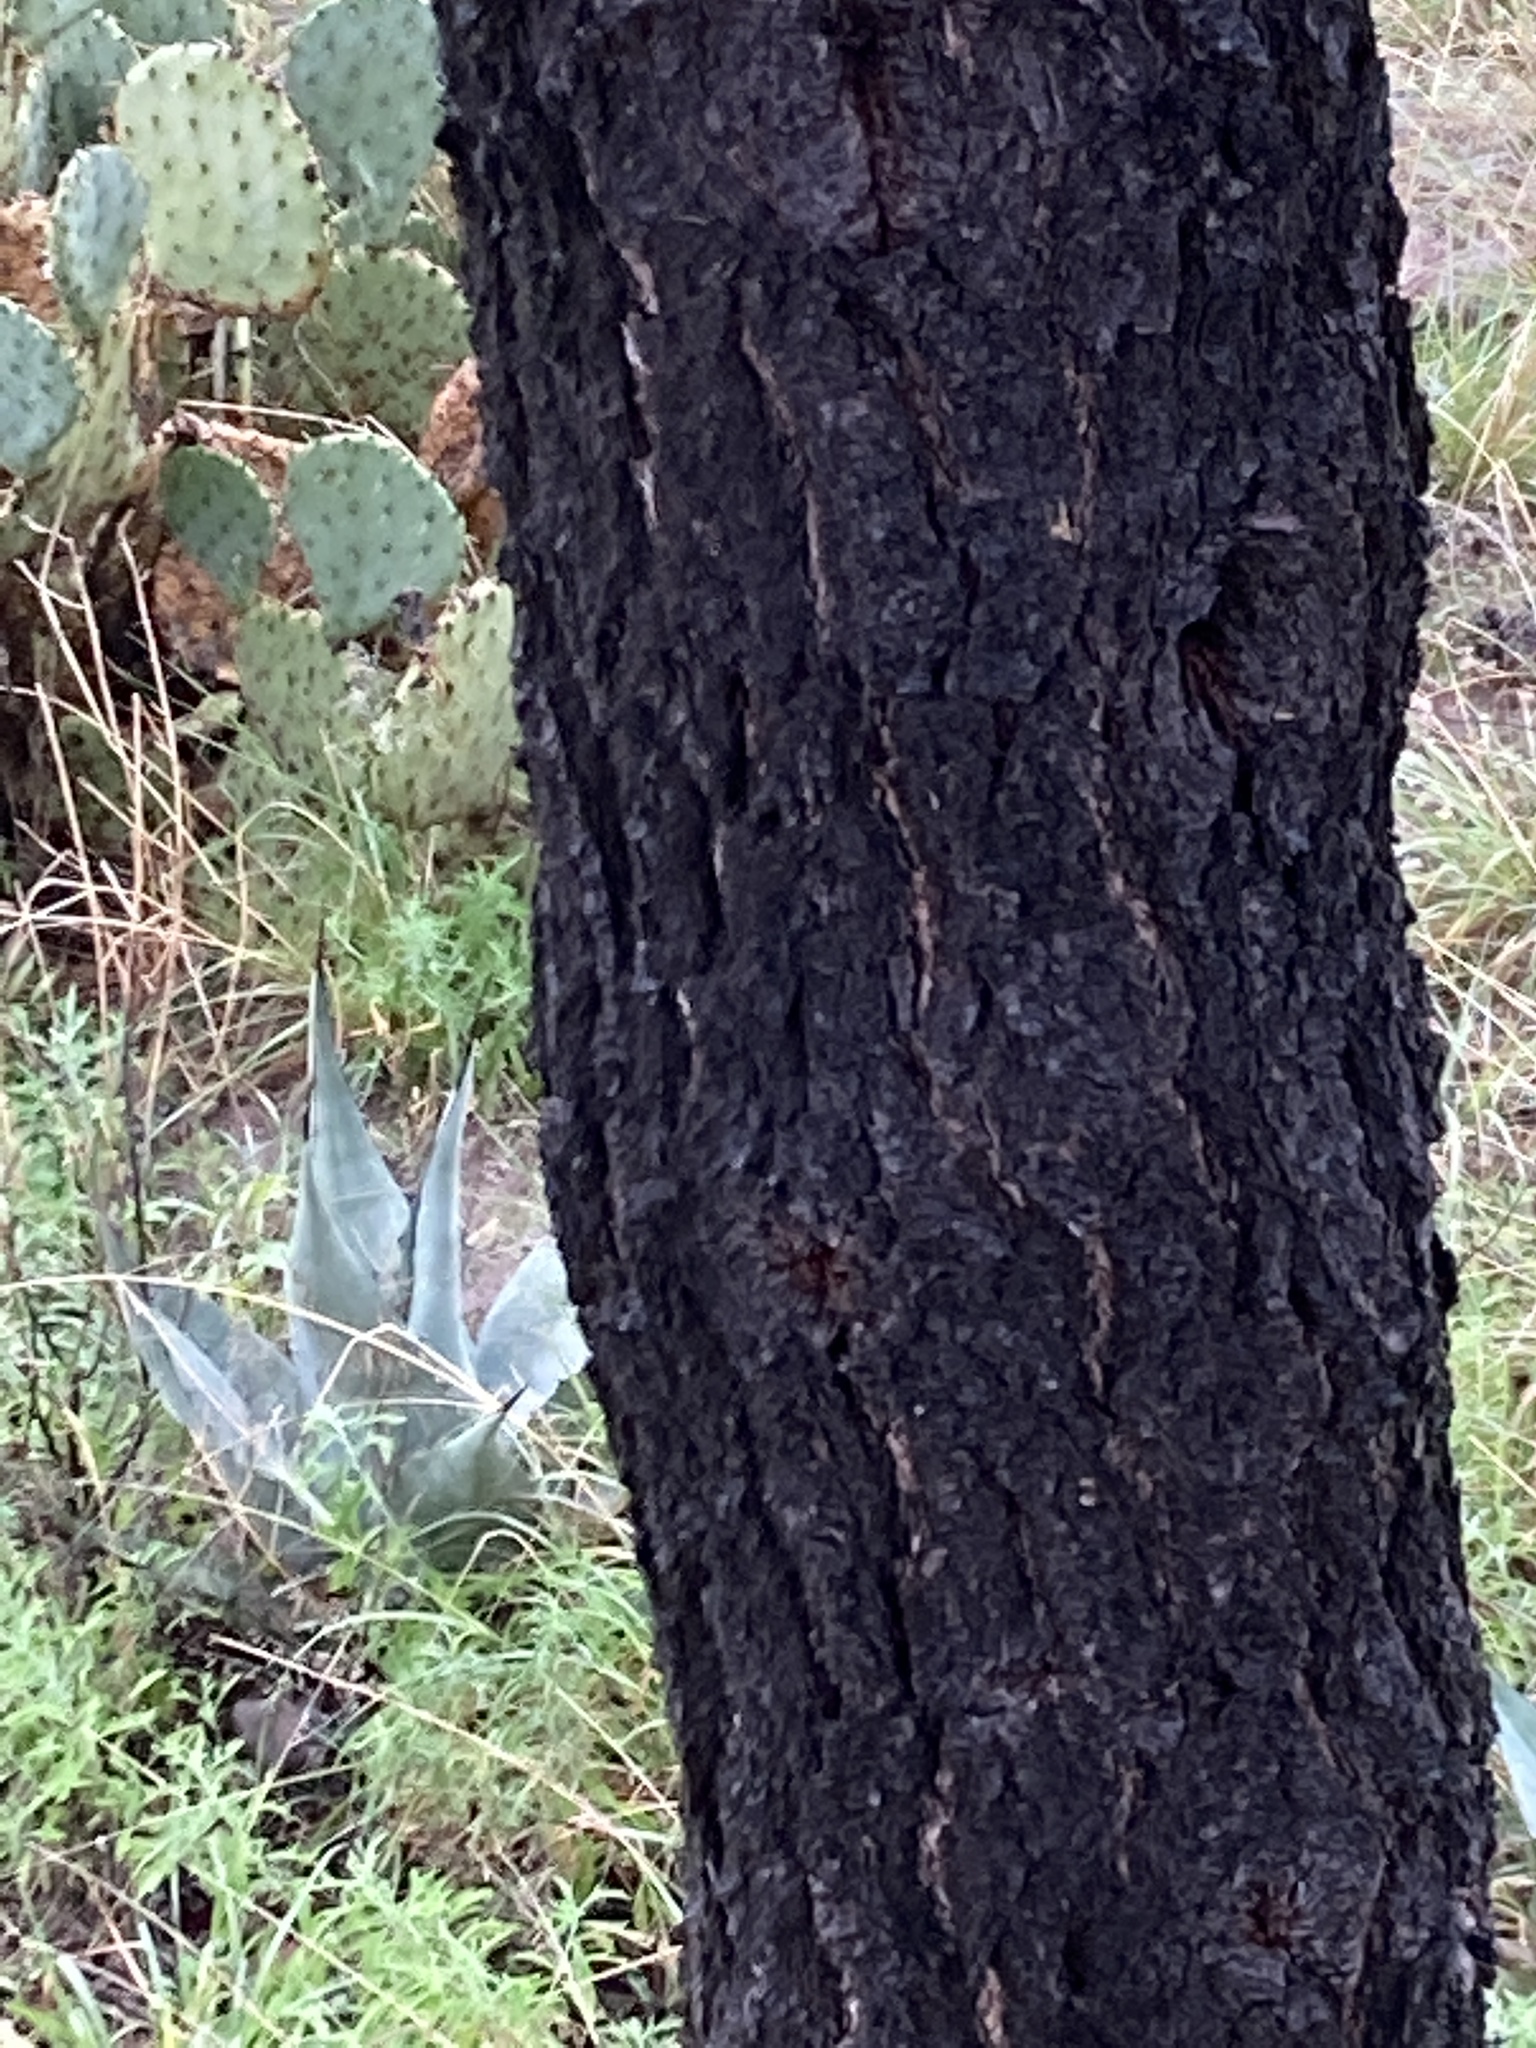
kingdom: Plantae
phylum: Tracheophyta
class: Pinopsida
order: Pinales
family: Pinaceae
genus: Pinus
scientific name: Pinus cembroides
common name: Mexican nut pine
